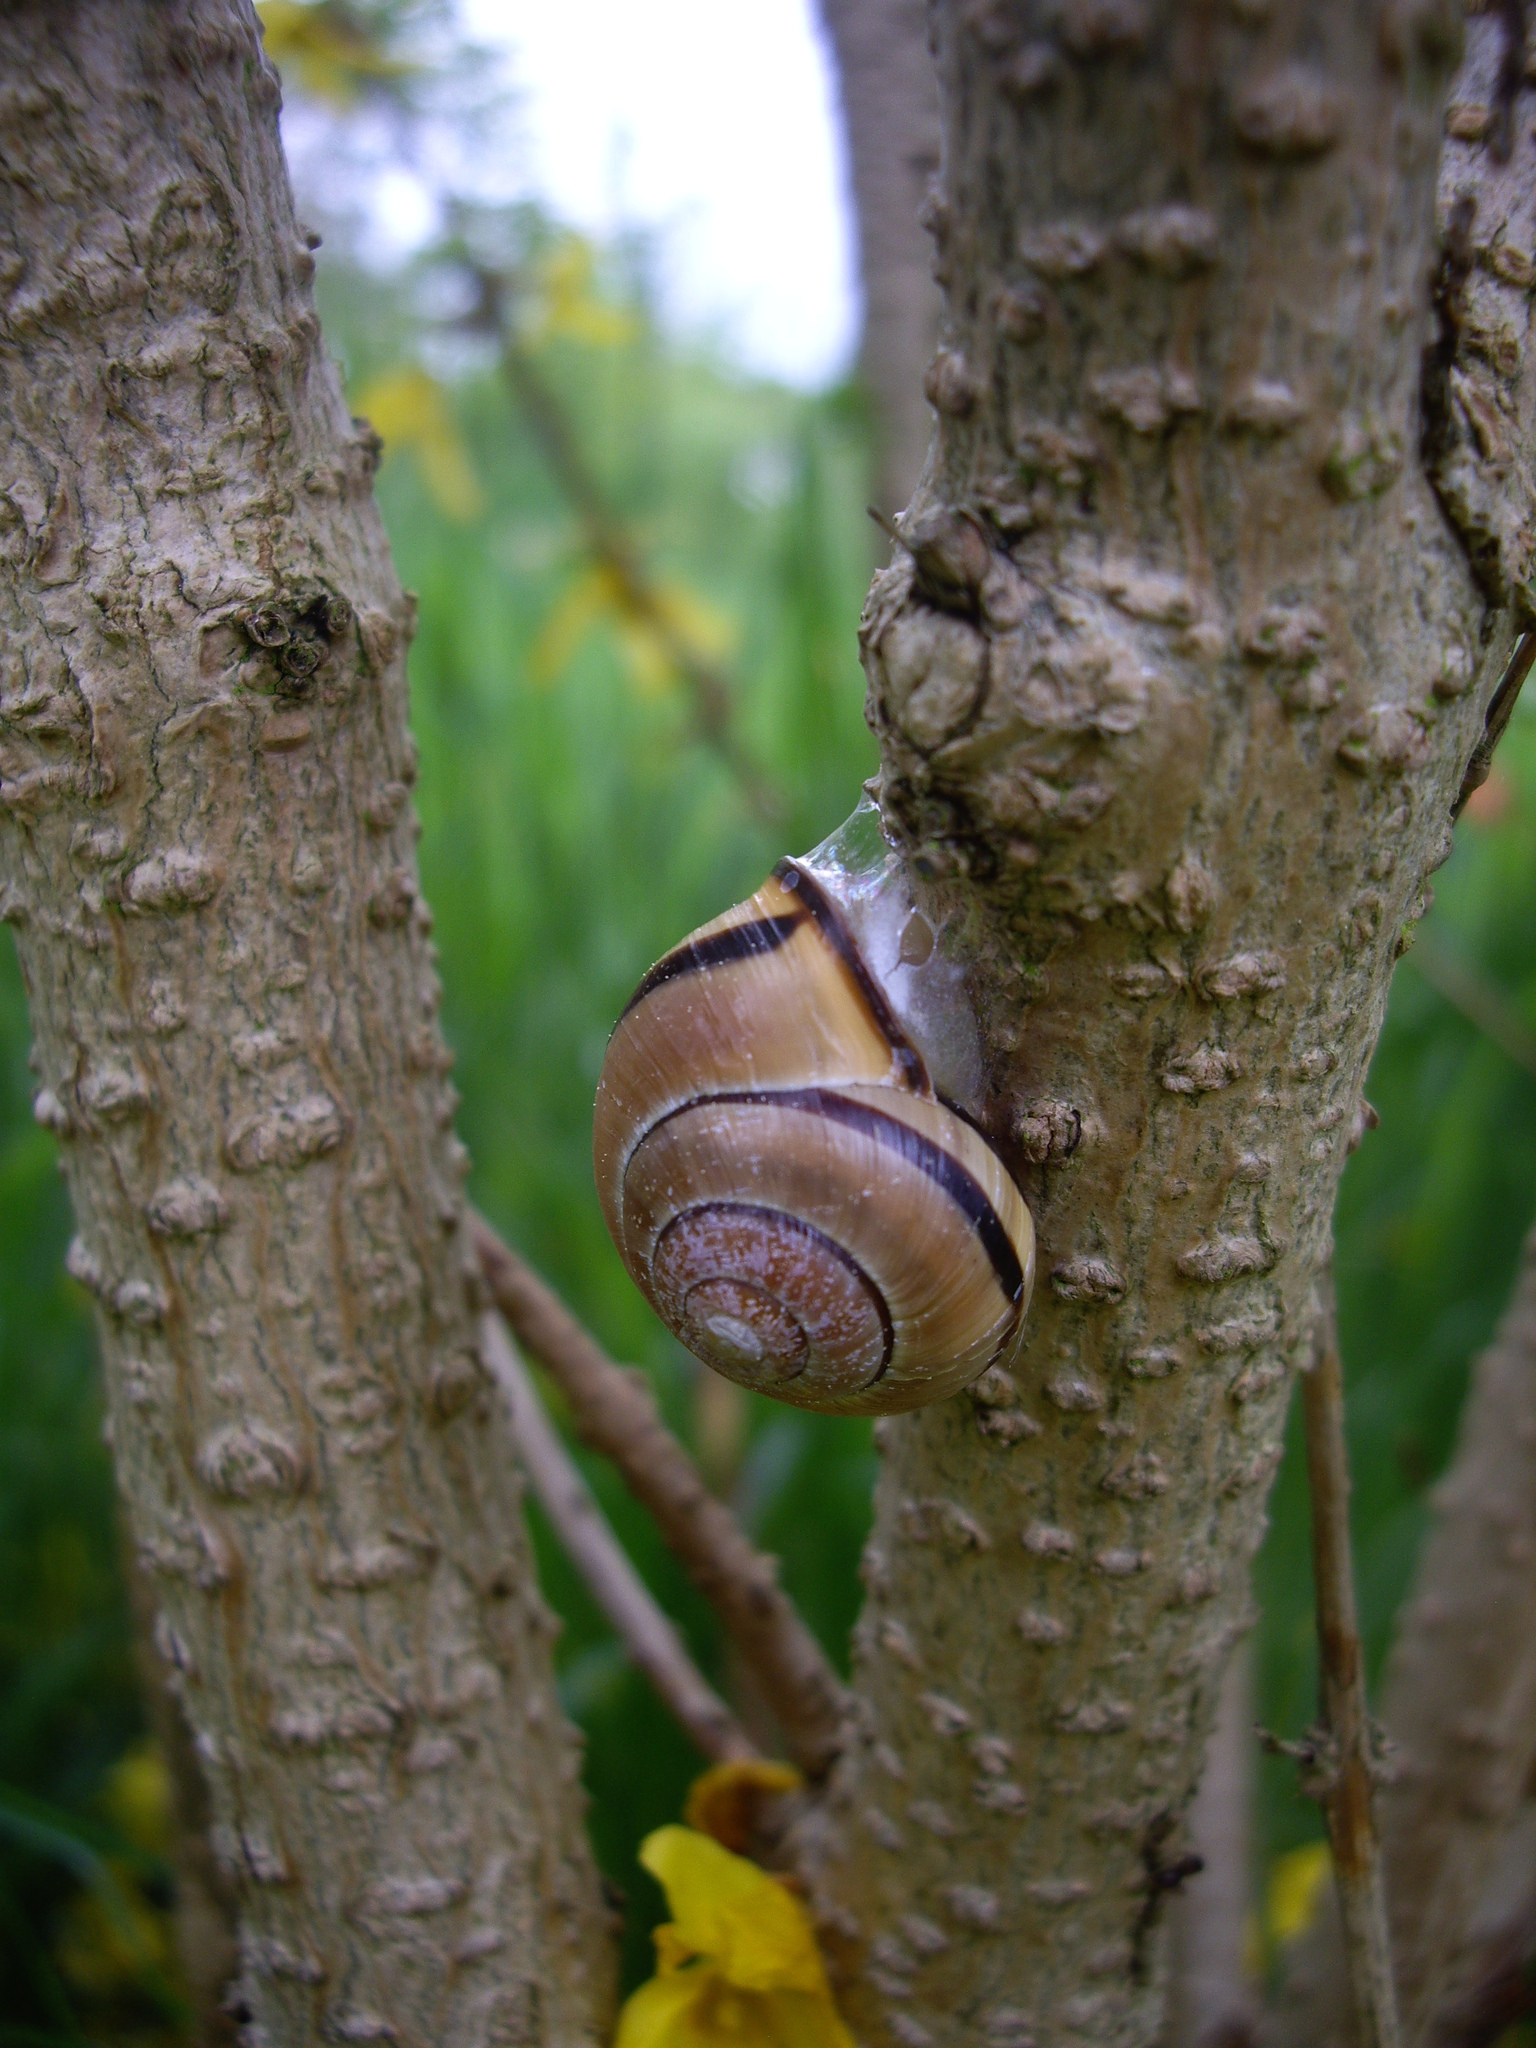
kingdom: Animalia
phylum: Mollusca
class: Gastropoda
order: Stylommatophora
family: Helicidae
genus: Cepaea
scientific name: Cepaea nemoralis
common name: Grovesnail
